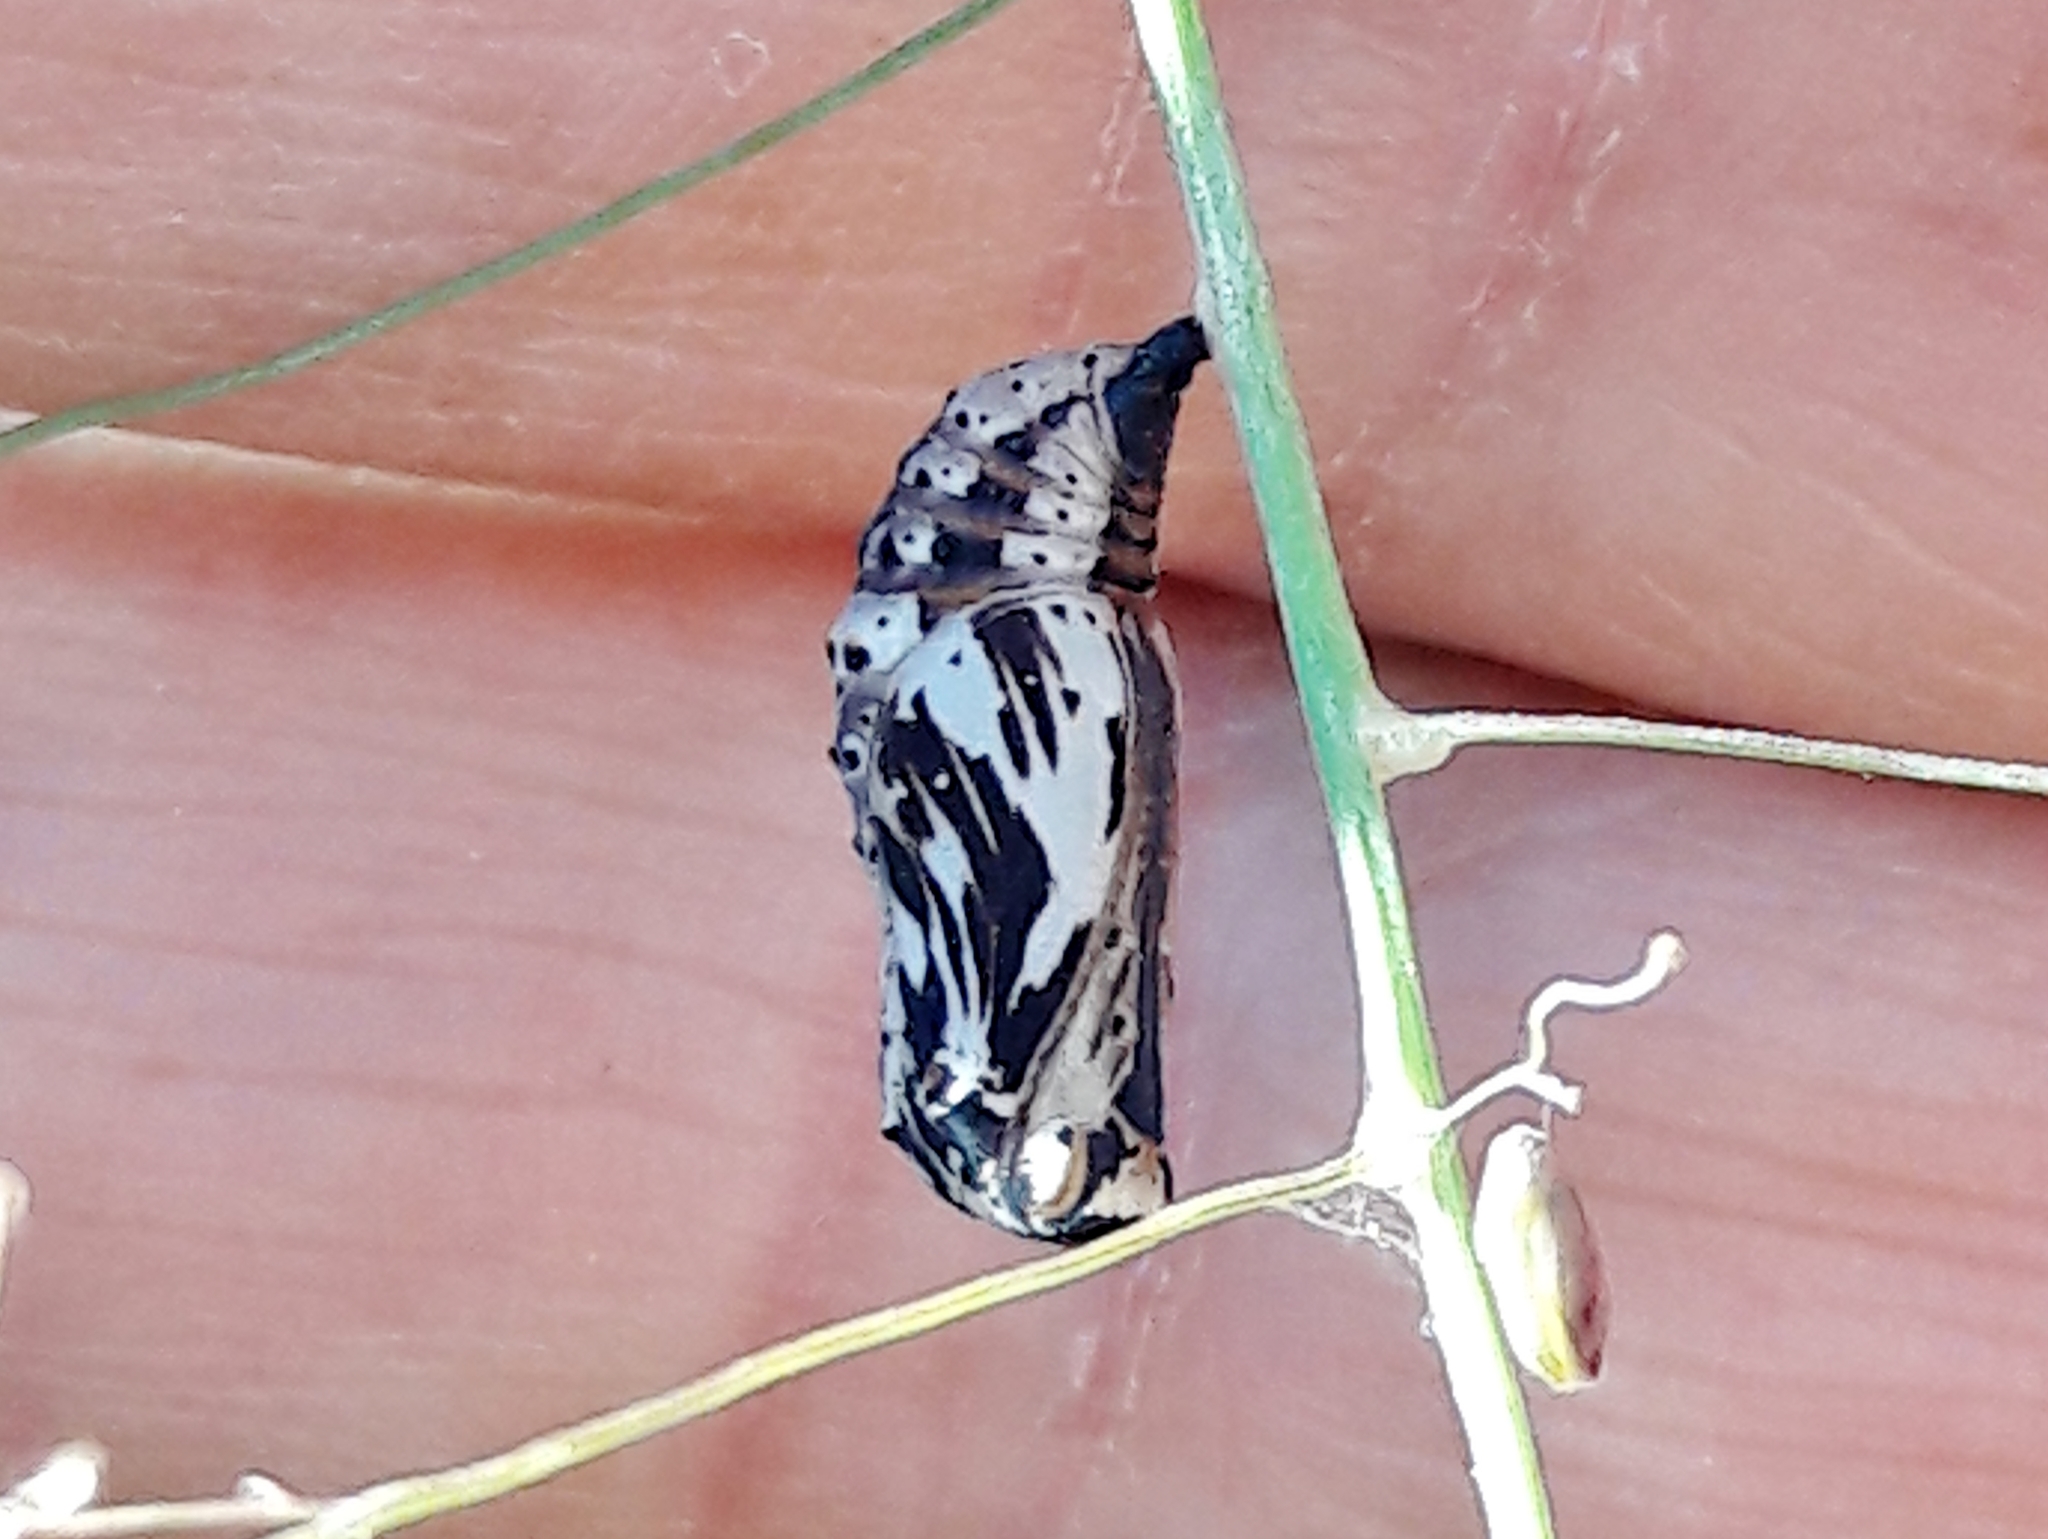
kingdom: Animalia
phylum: Arthropoda
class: Insecta
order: Lepidoptera
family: Nymphalidae
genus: Chlosyne
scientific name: Chlosyne lacinia
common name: Bordered patch
